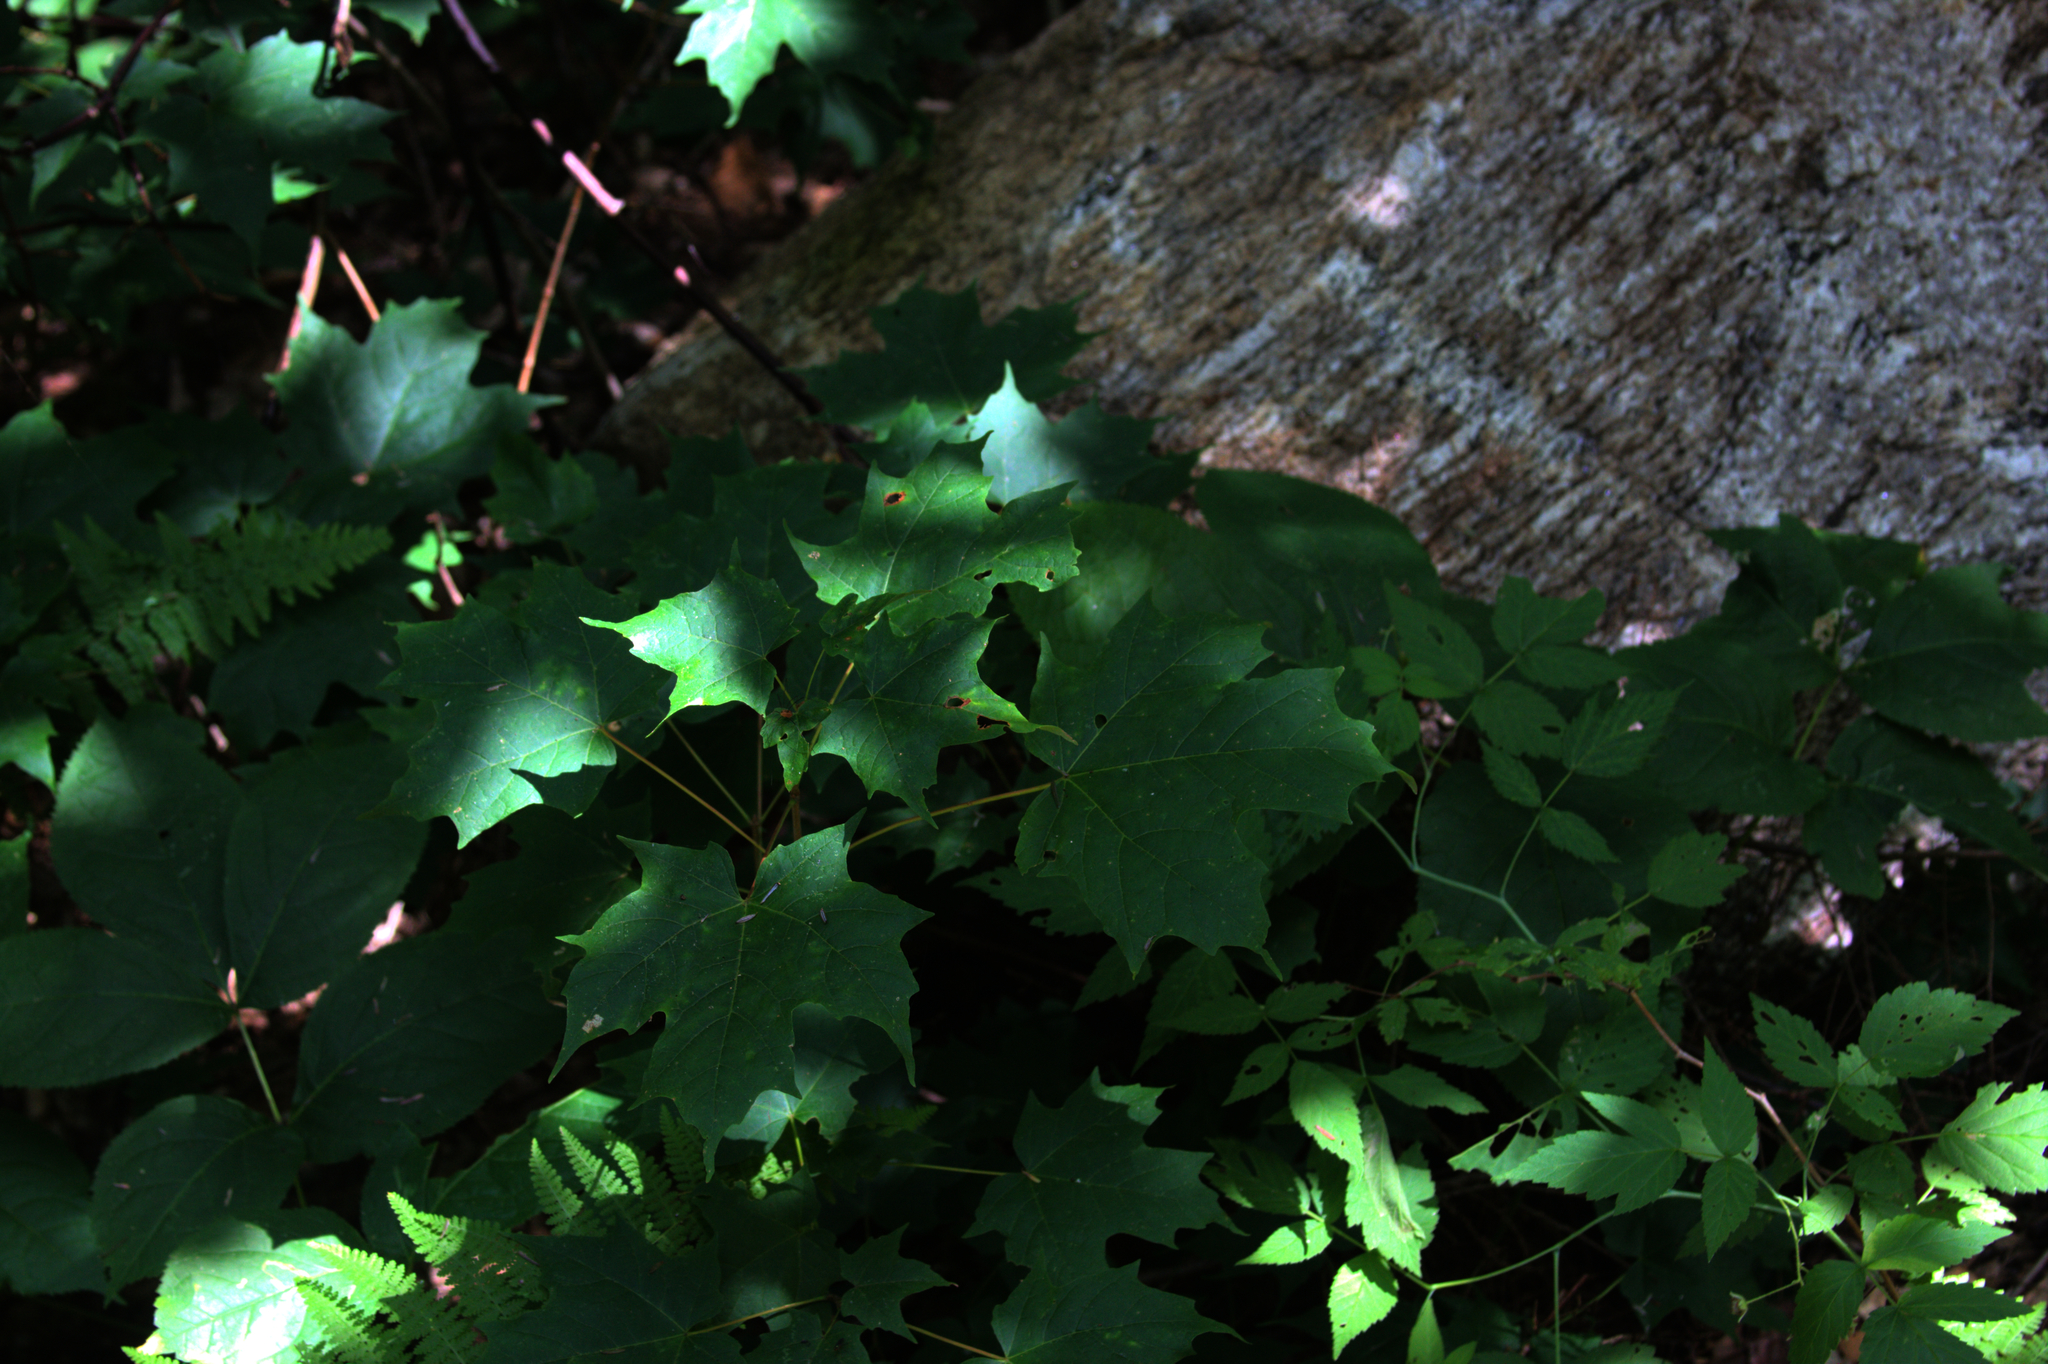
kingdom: Plantae
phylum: Tracheophyta
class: Magnoliopsida
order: Sapindales
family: Sapindaceae
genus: Acer
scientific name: Acer saccharum
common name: Sugar maple
